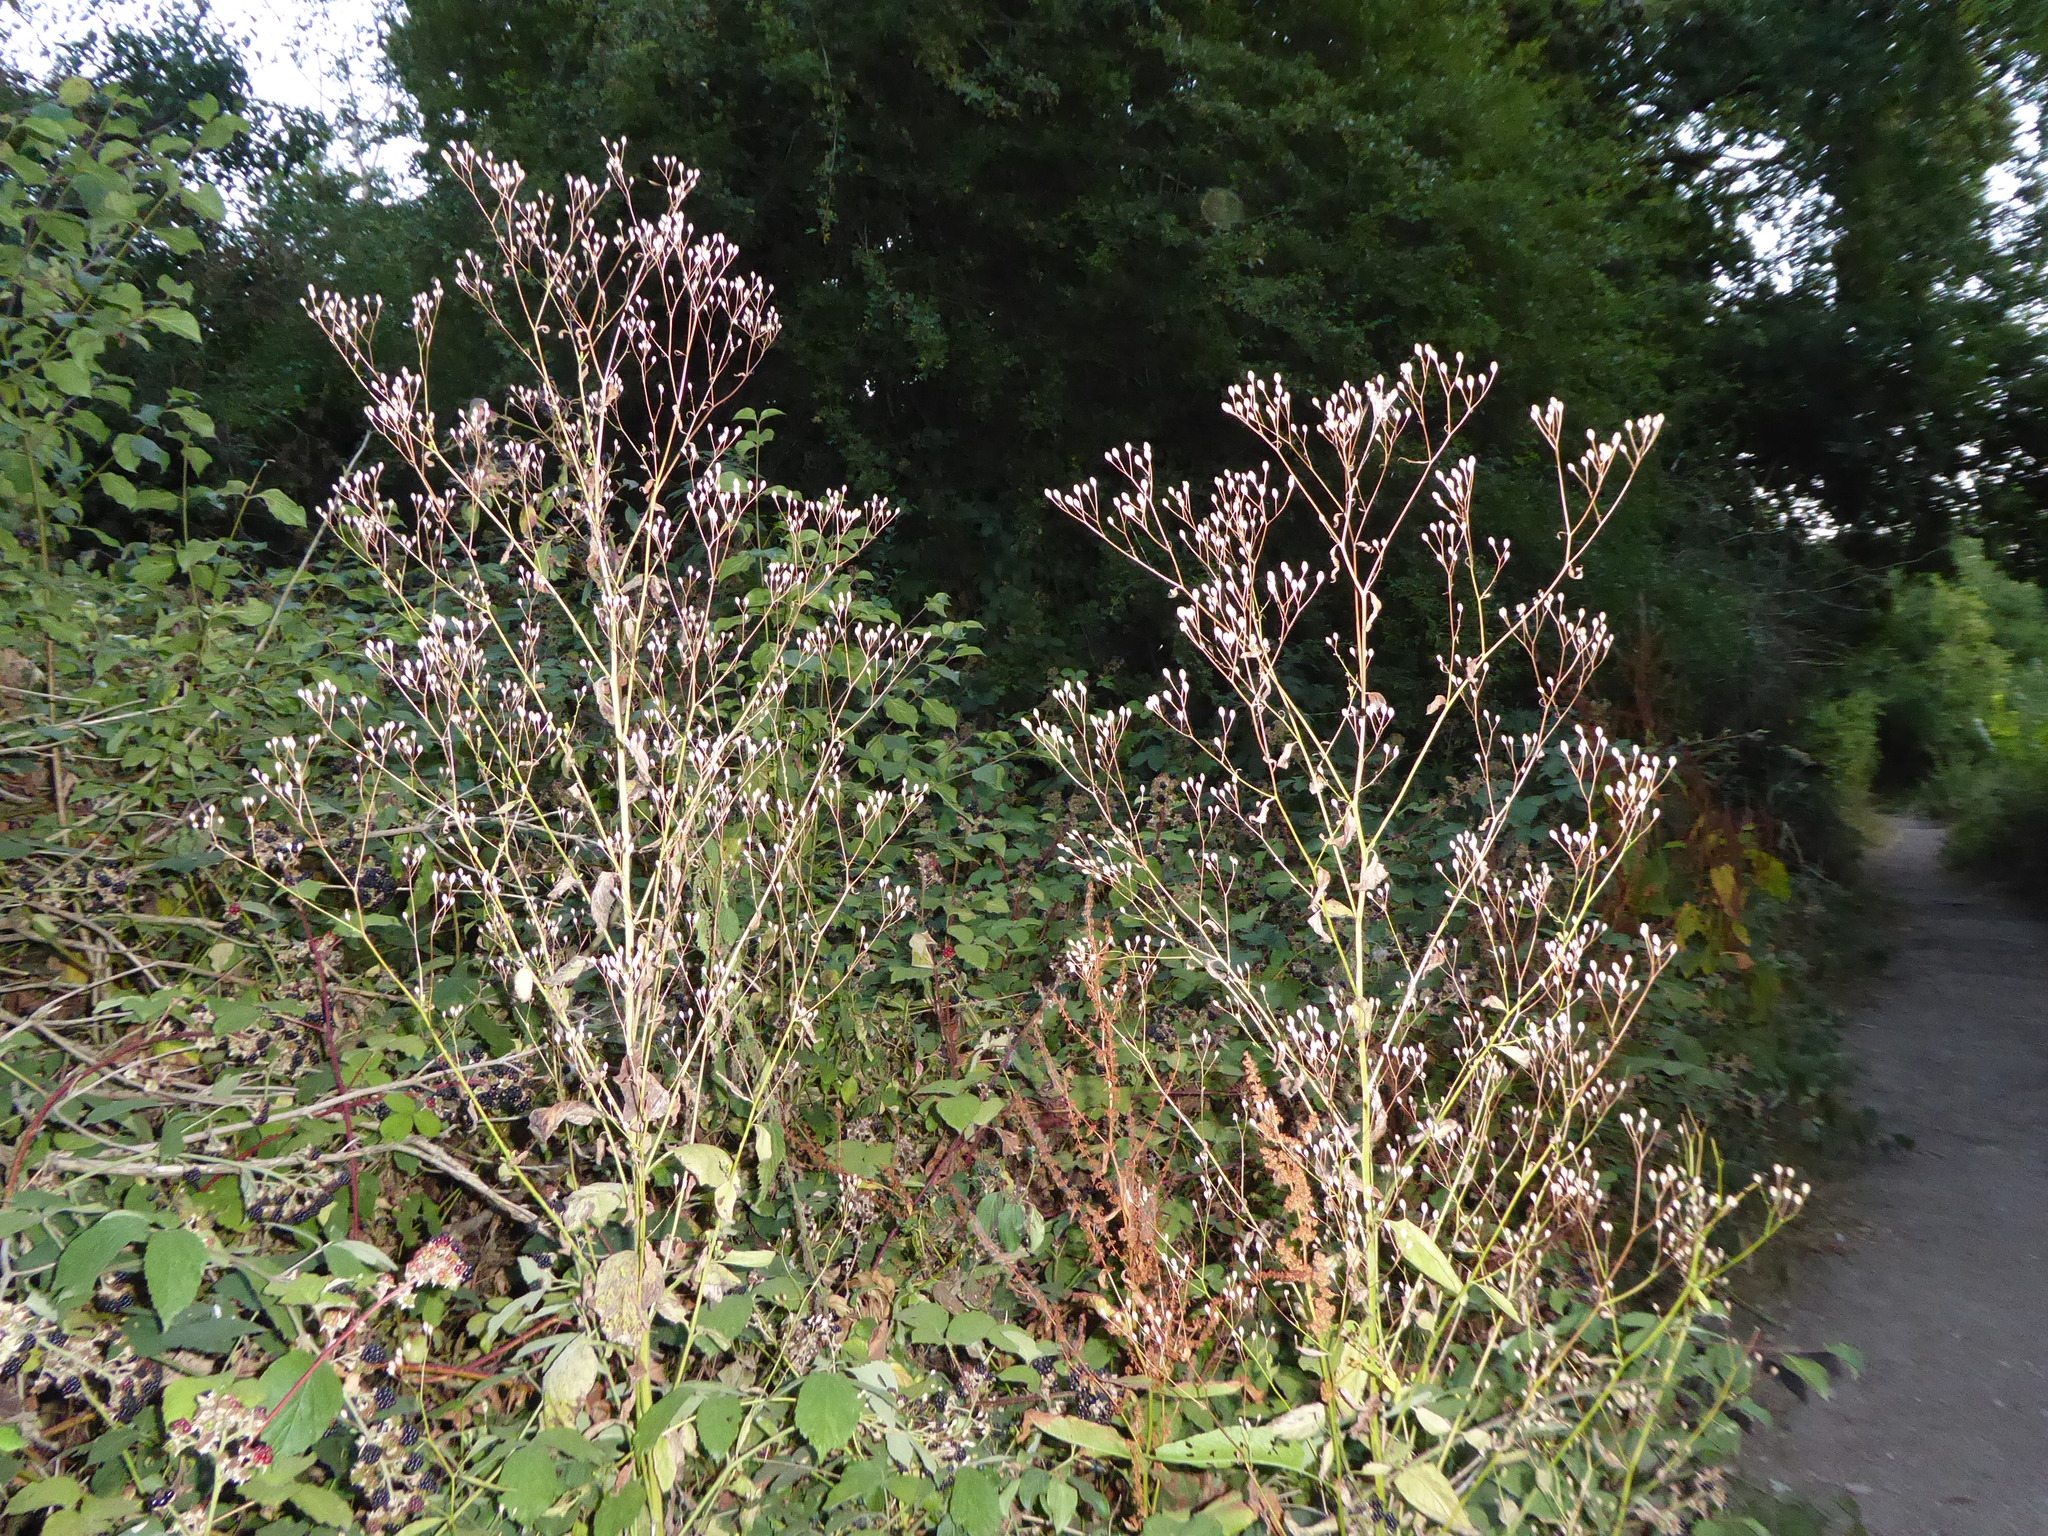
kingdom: Plantae
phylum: Tracheophyta
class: Magnoliopsida
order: Asterales
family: Asteraceae
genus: Lapsana
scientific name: Lapsana communis
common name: Nipplewort
